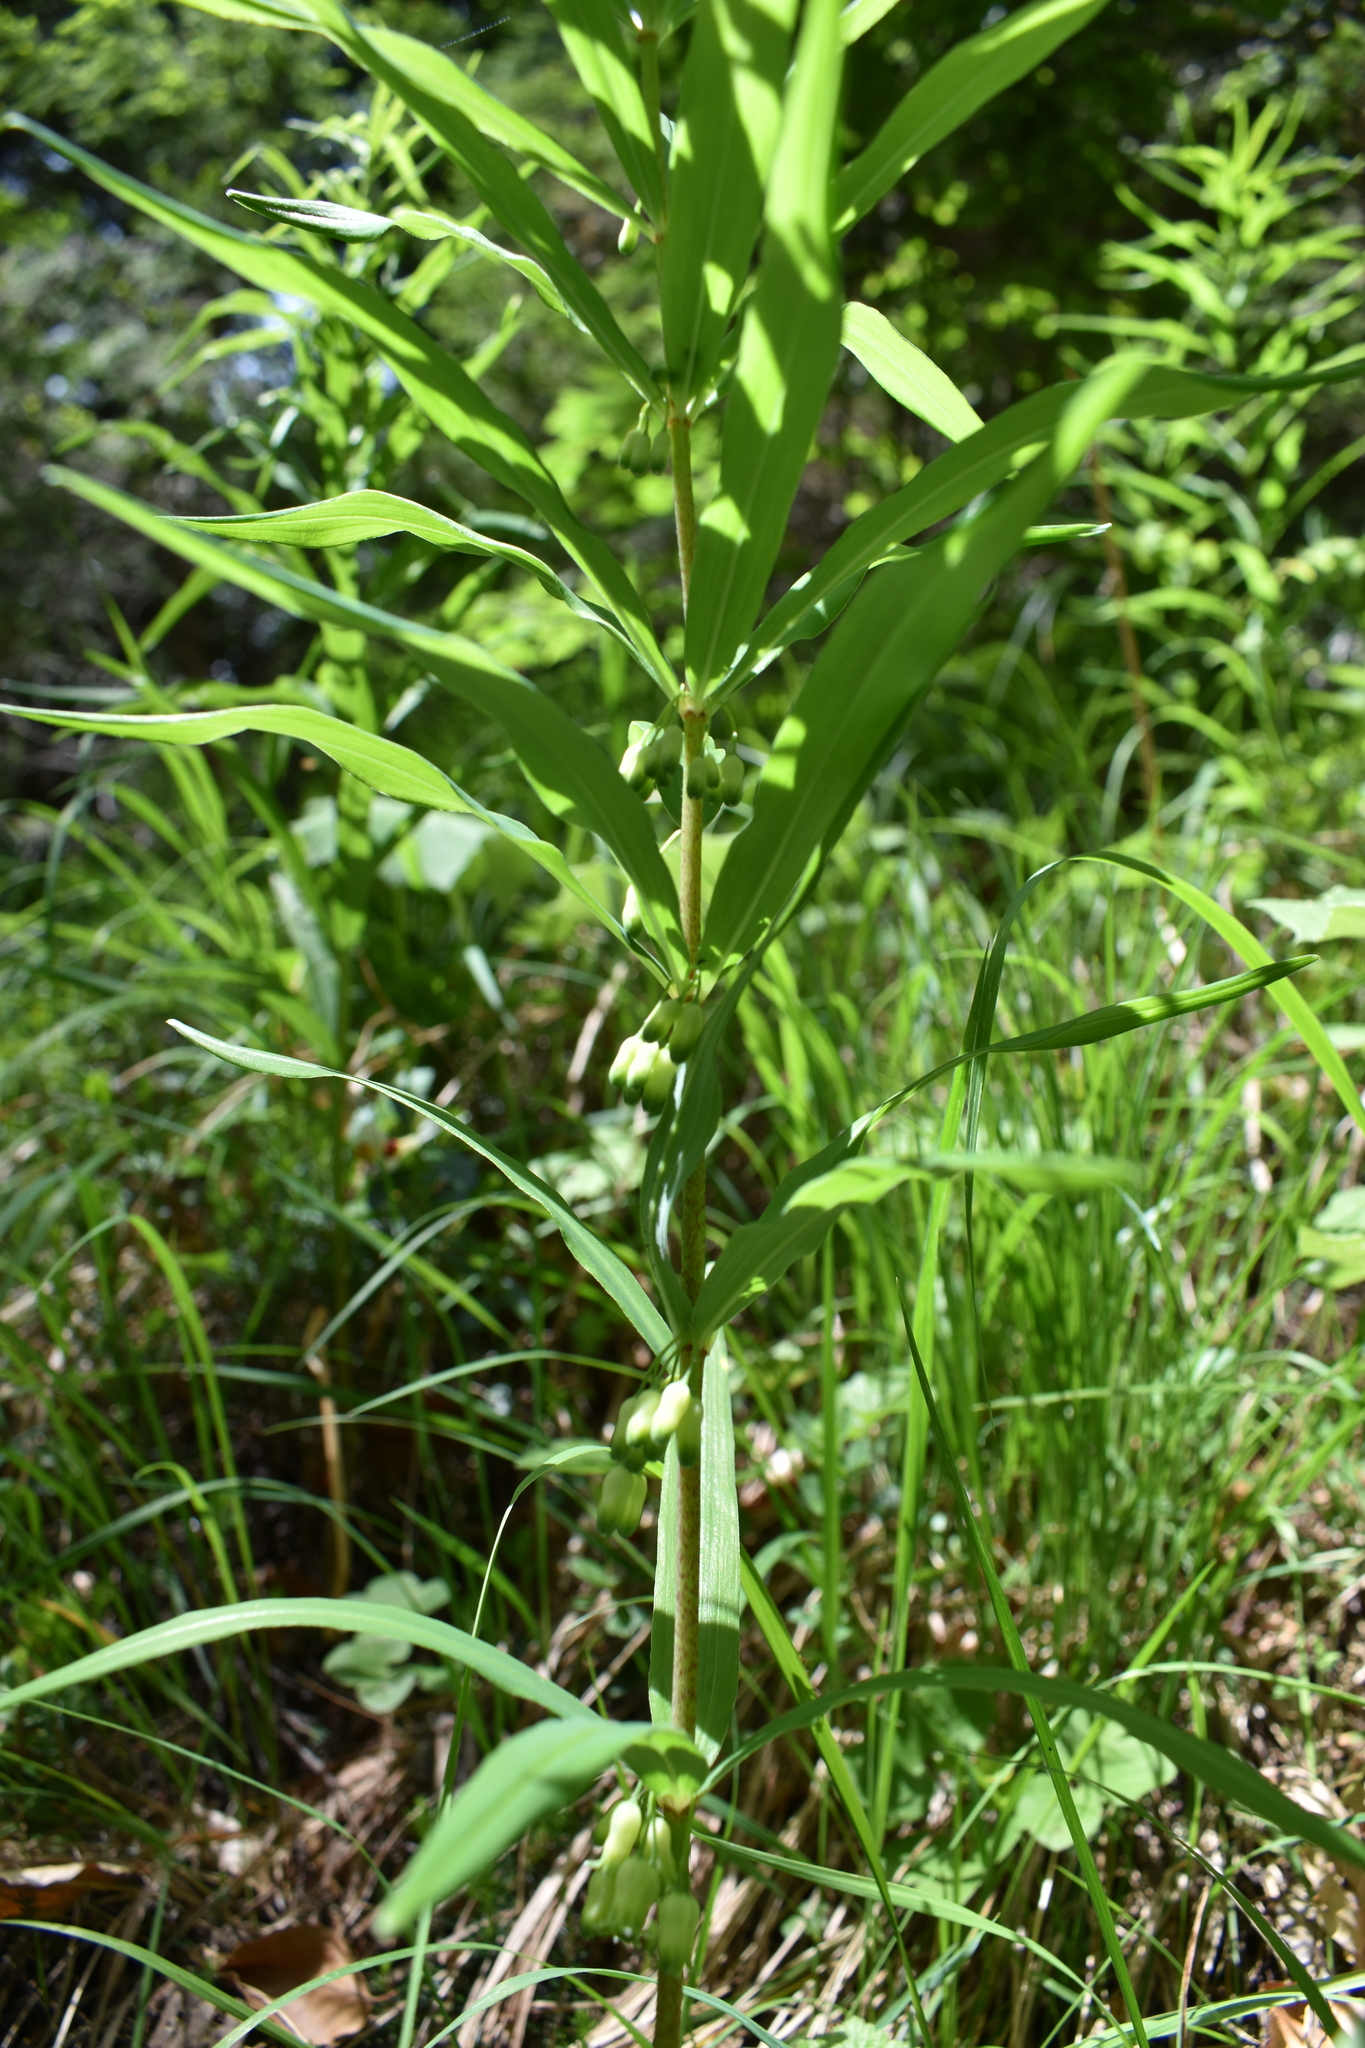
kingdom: Plantae
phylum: Tracheophyta
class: Liliopsida
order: Asparagales
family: Asparagaceae
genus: Polygonatum
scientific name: Polygonatum verticillatum
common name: Whorled solomon's-seal
